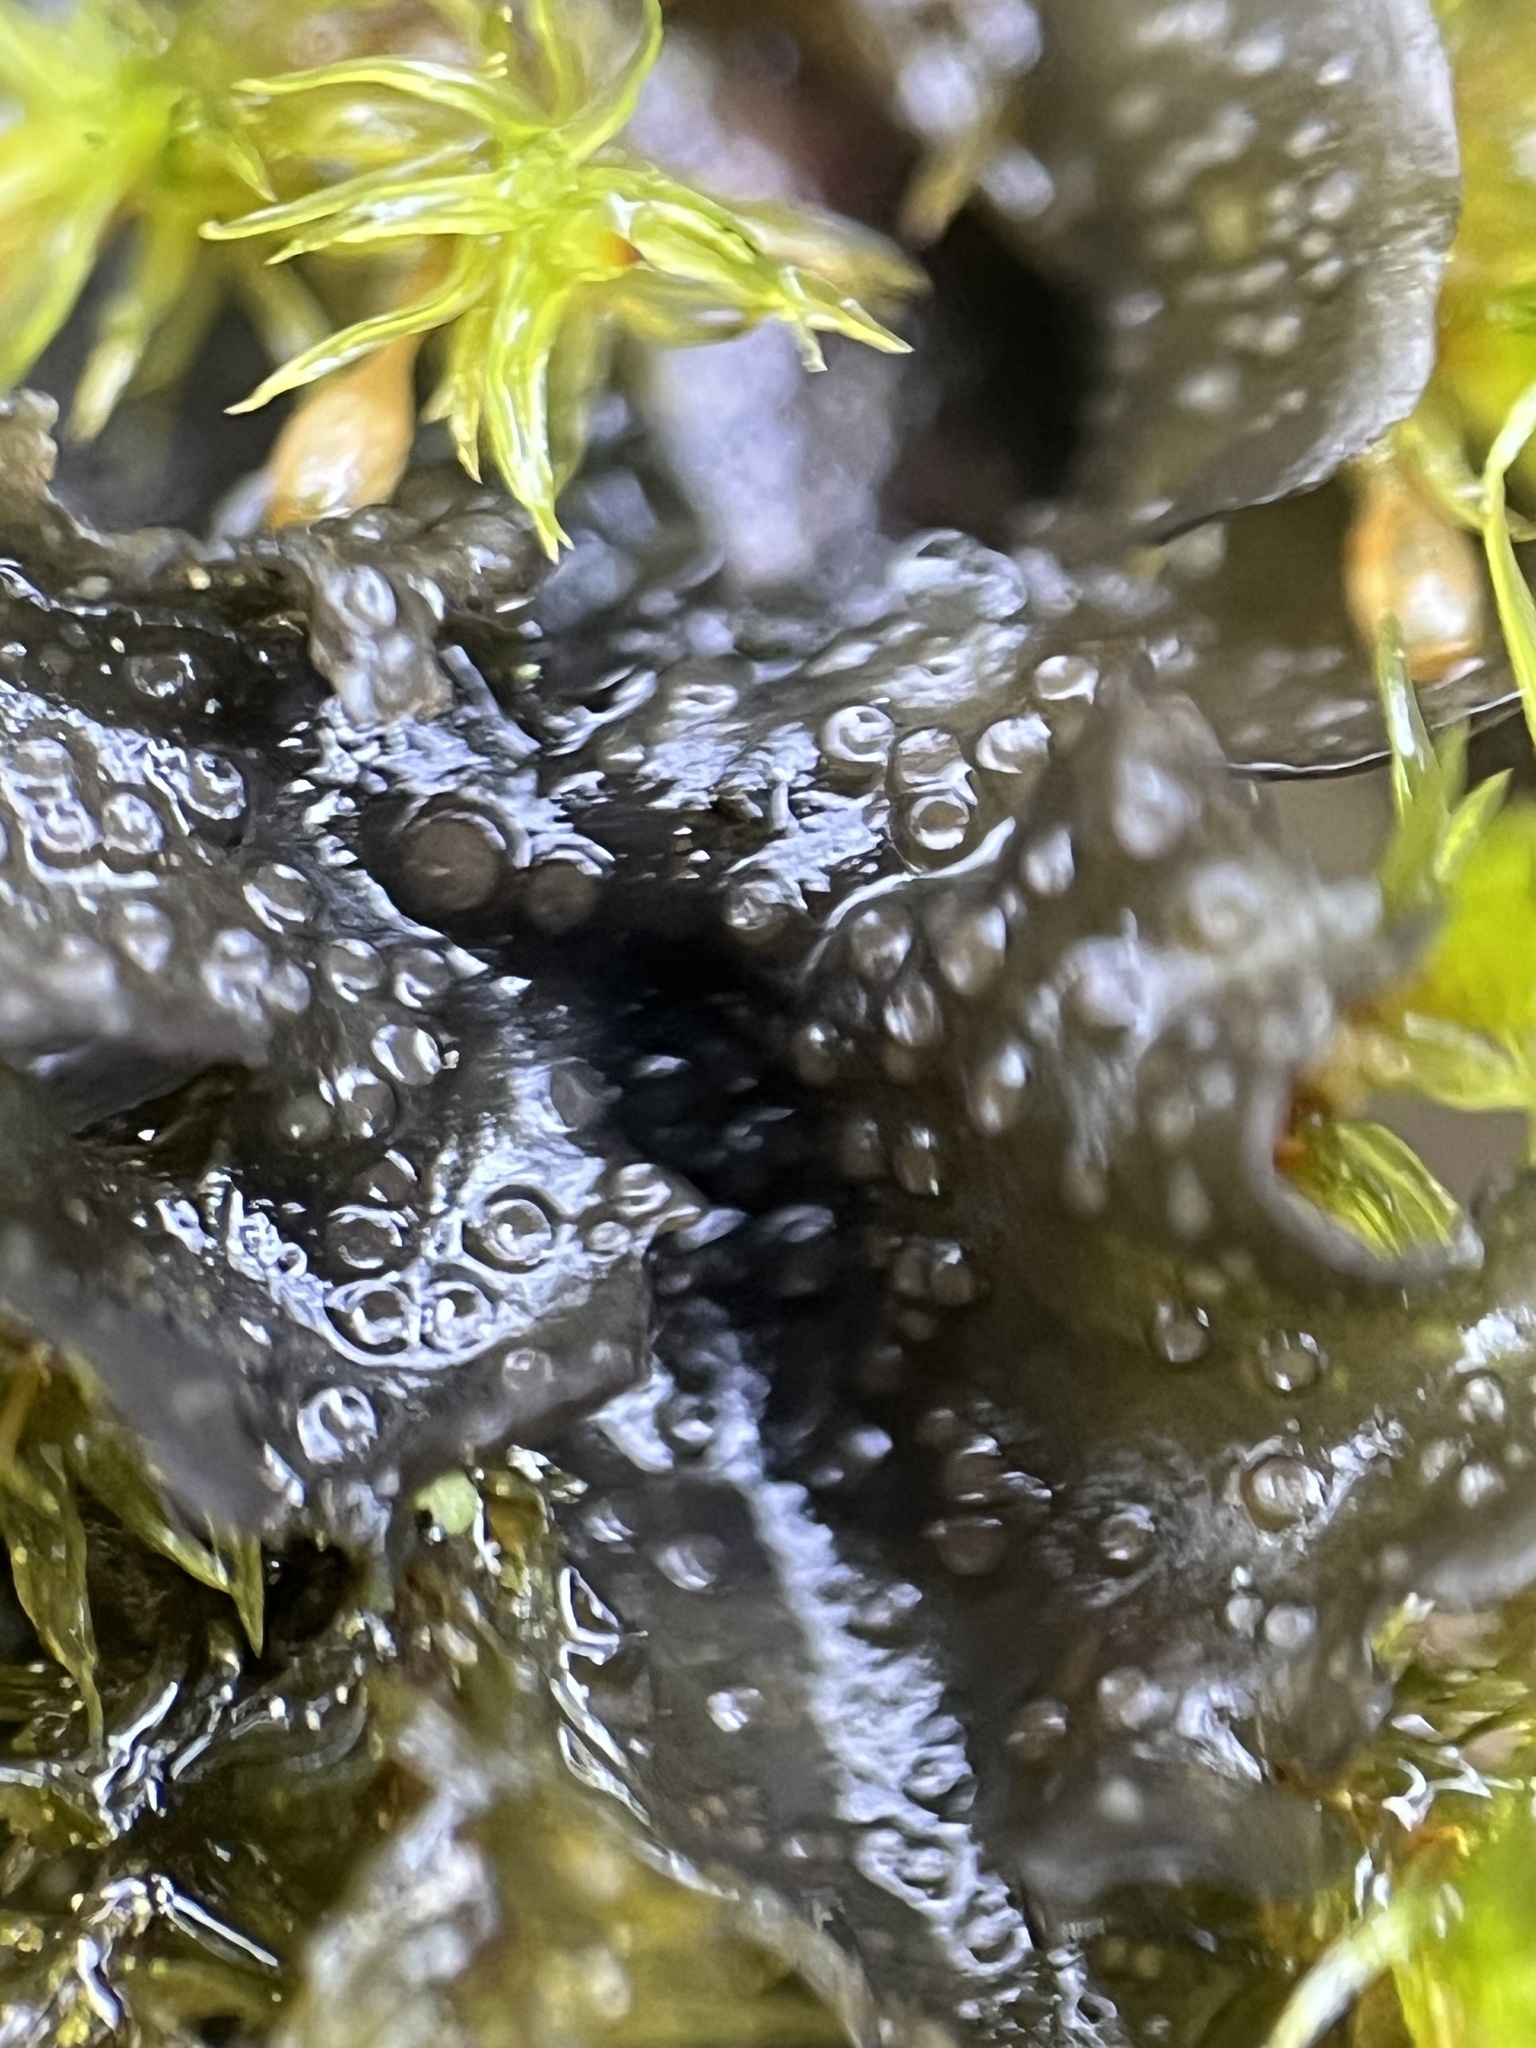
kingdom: Fungi
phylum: Ascomycota
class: Lecanoromycetes
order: Peltigerales
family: Collemataceae
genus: Scytinium
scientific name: Scytinium polycarpum
